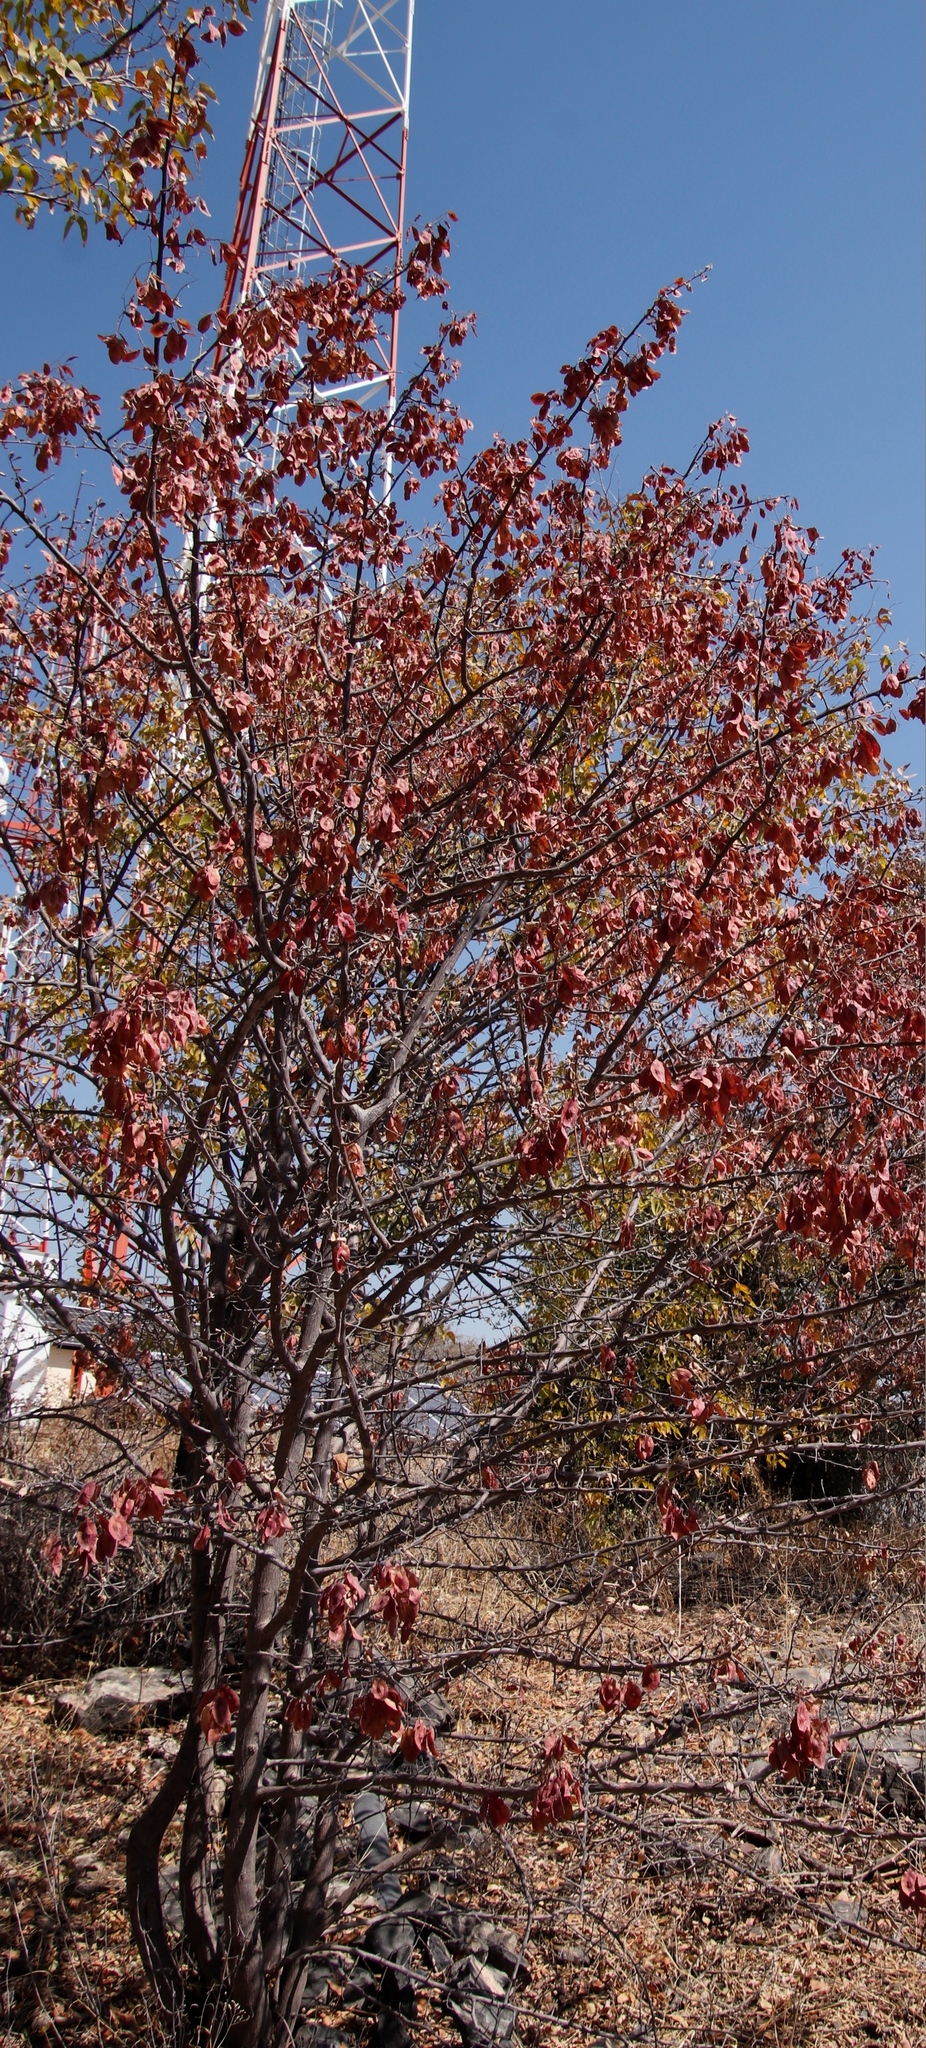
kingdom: Plantae
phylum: Tracheophyta
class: Magnoliopsida
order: Myrtales
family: Combretaceae
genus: Terminalia
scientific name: Terminalia prunioides
